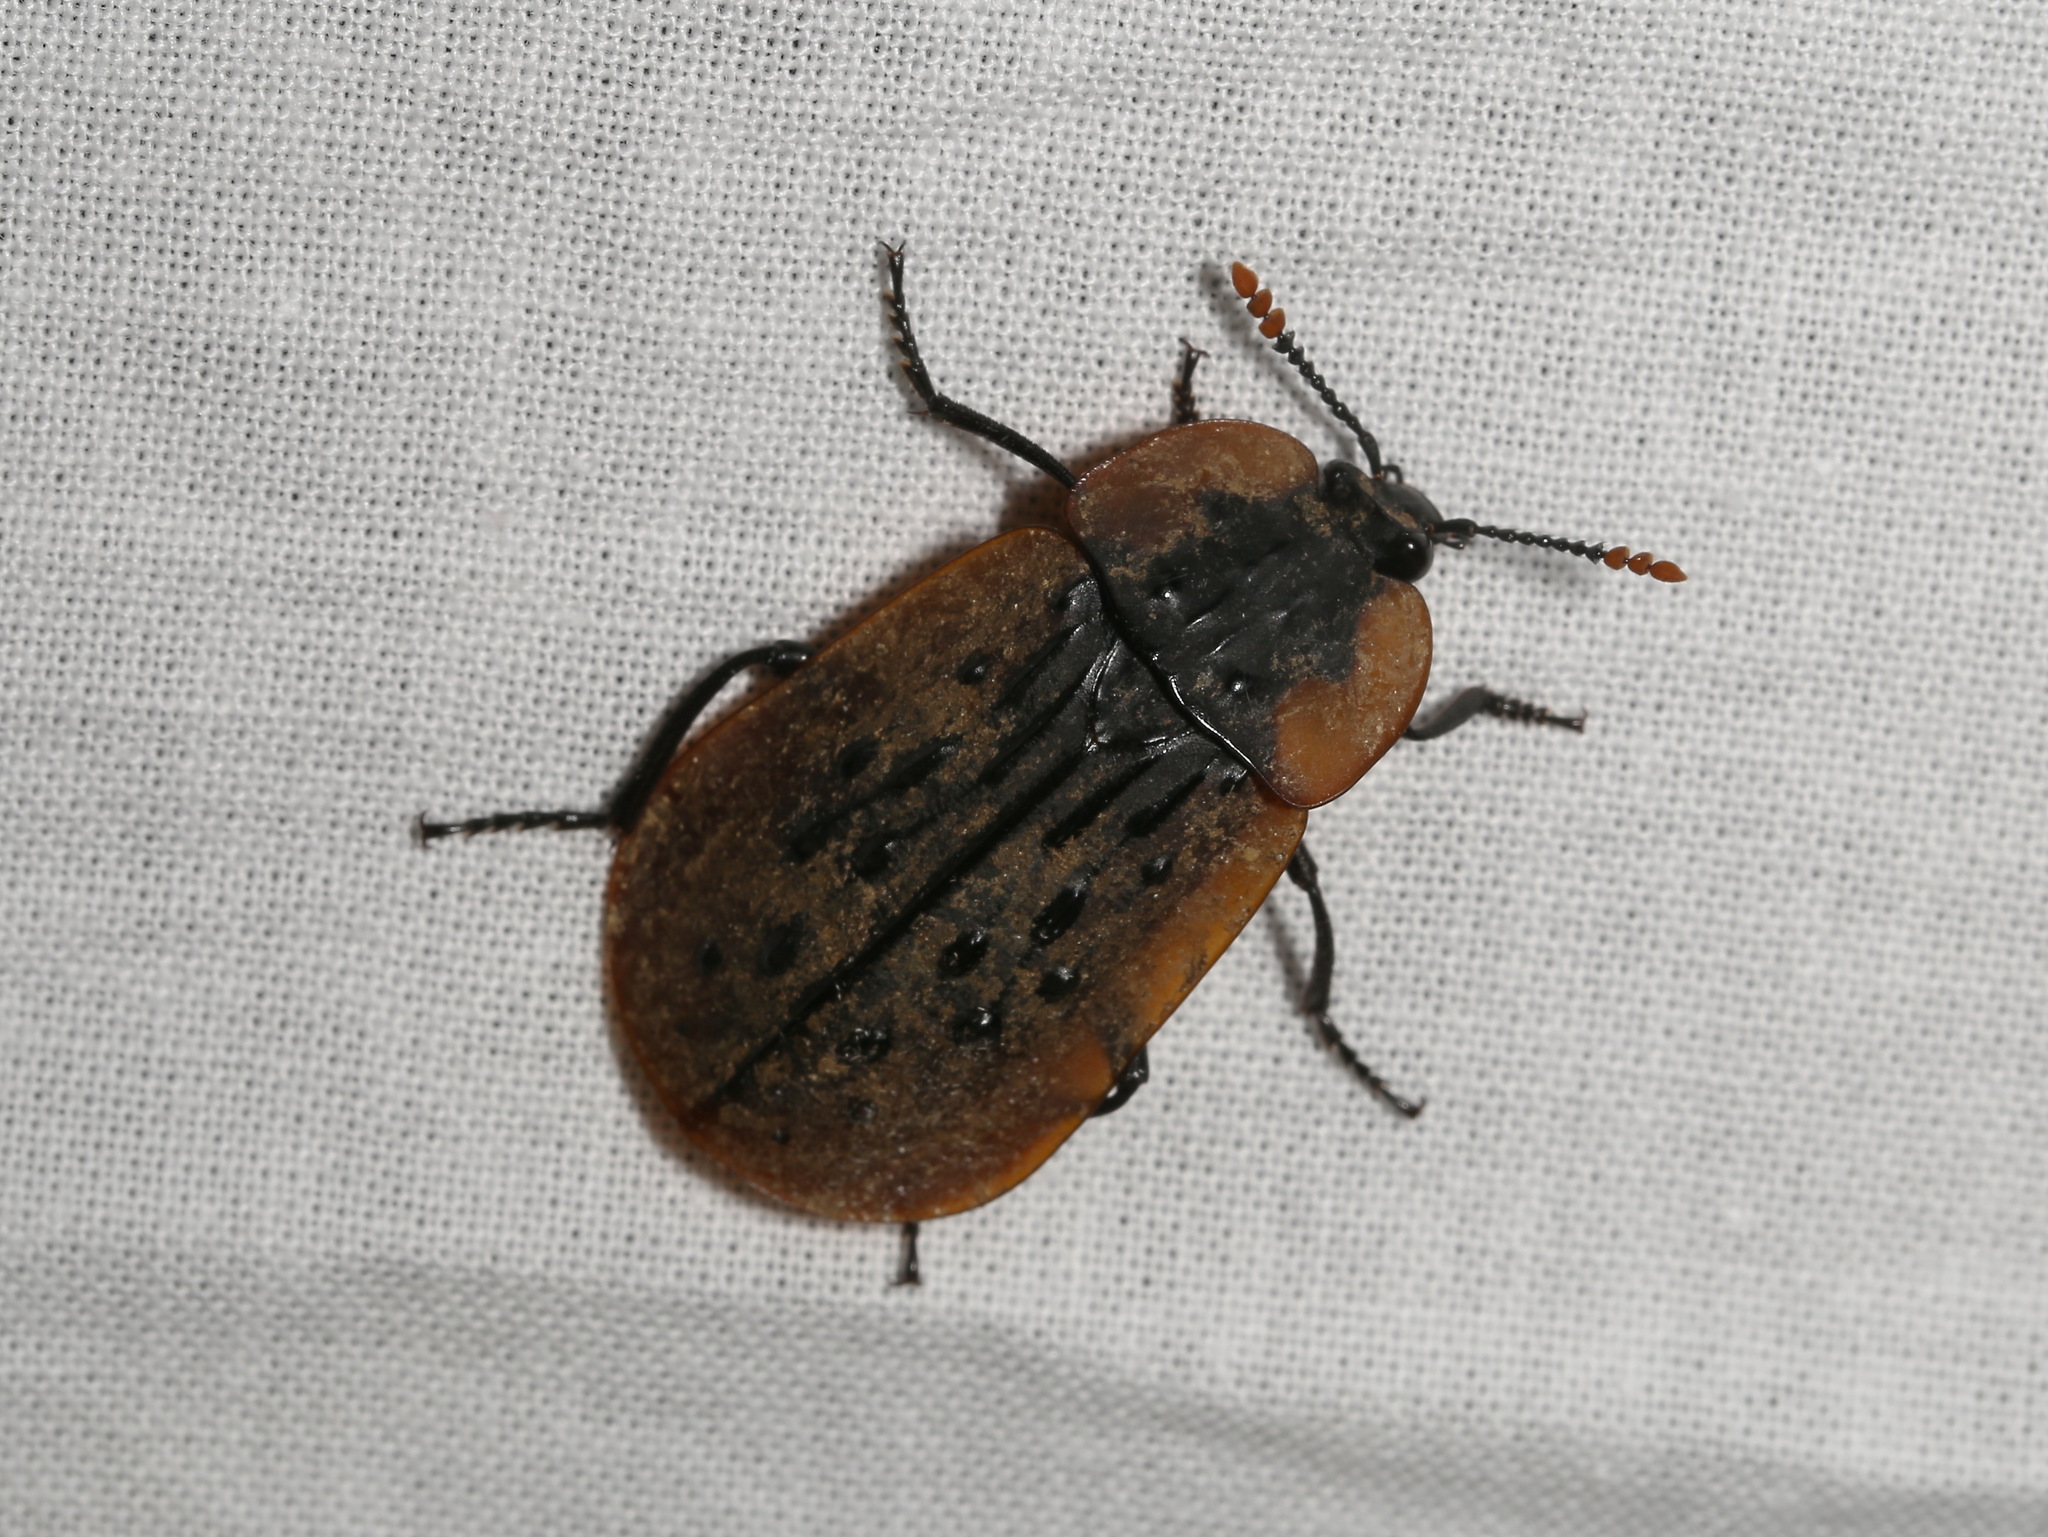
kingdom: Animalia
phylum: Arthropoda
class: Insecta
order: Coleoptera
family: Staphylinidae
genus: Ptomaphila
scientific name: Ptomaphila lacrymosa
